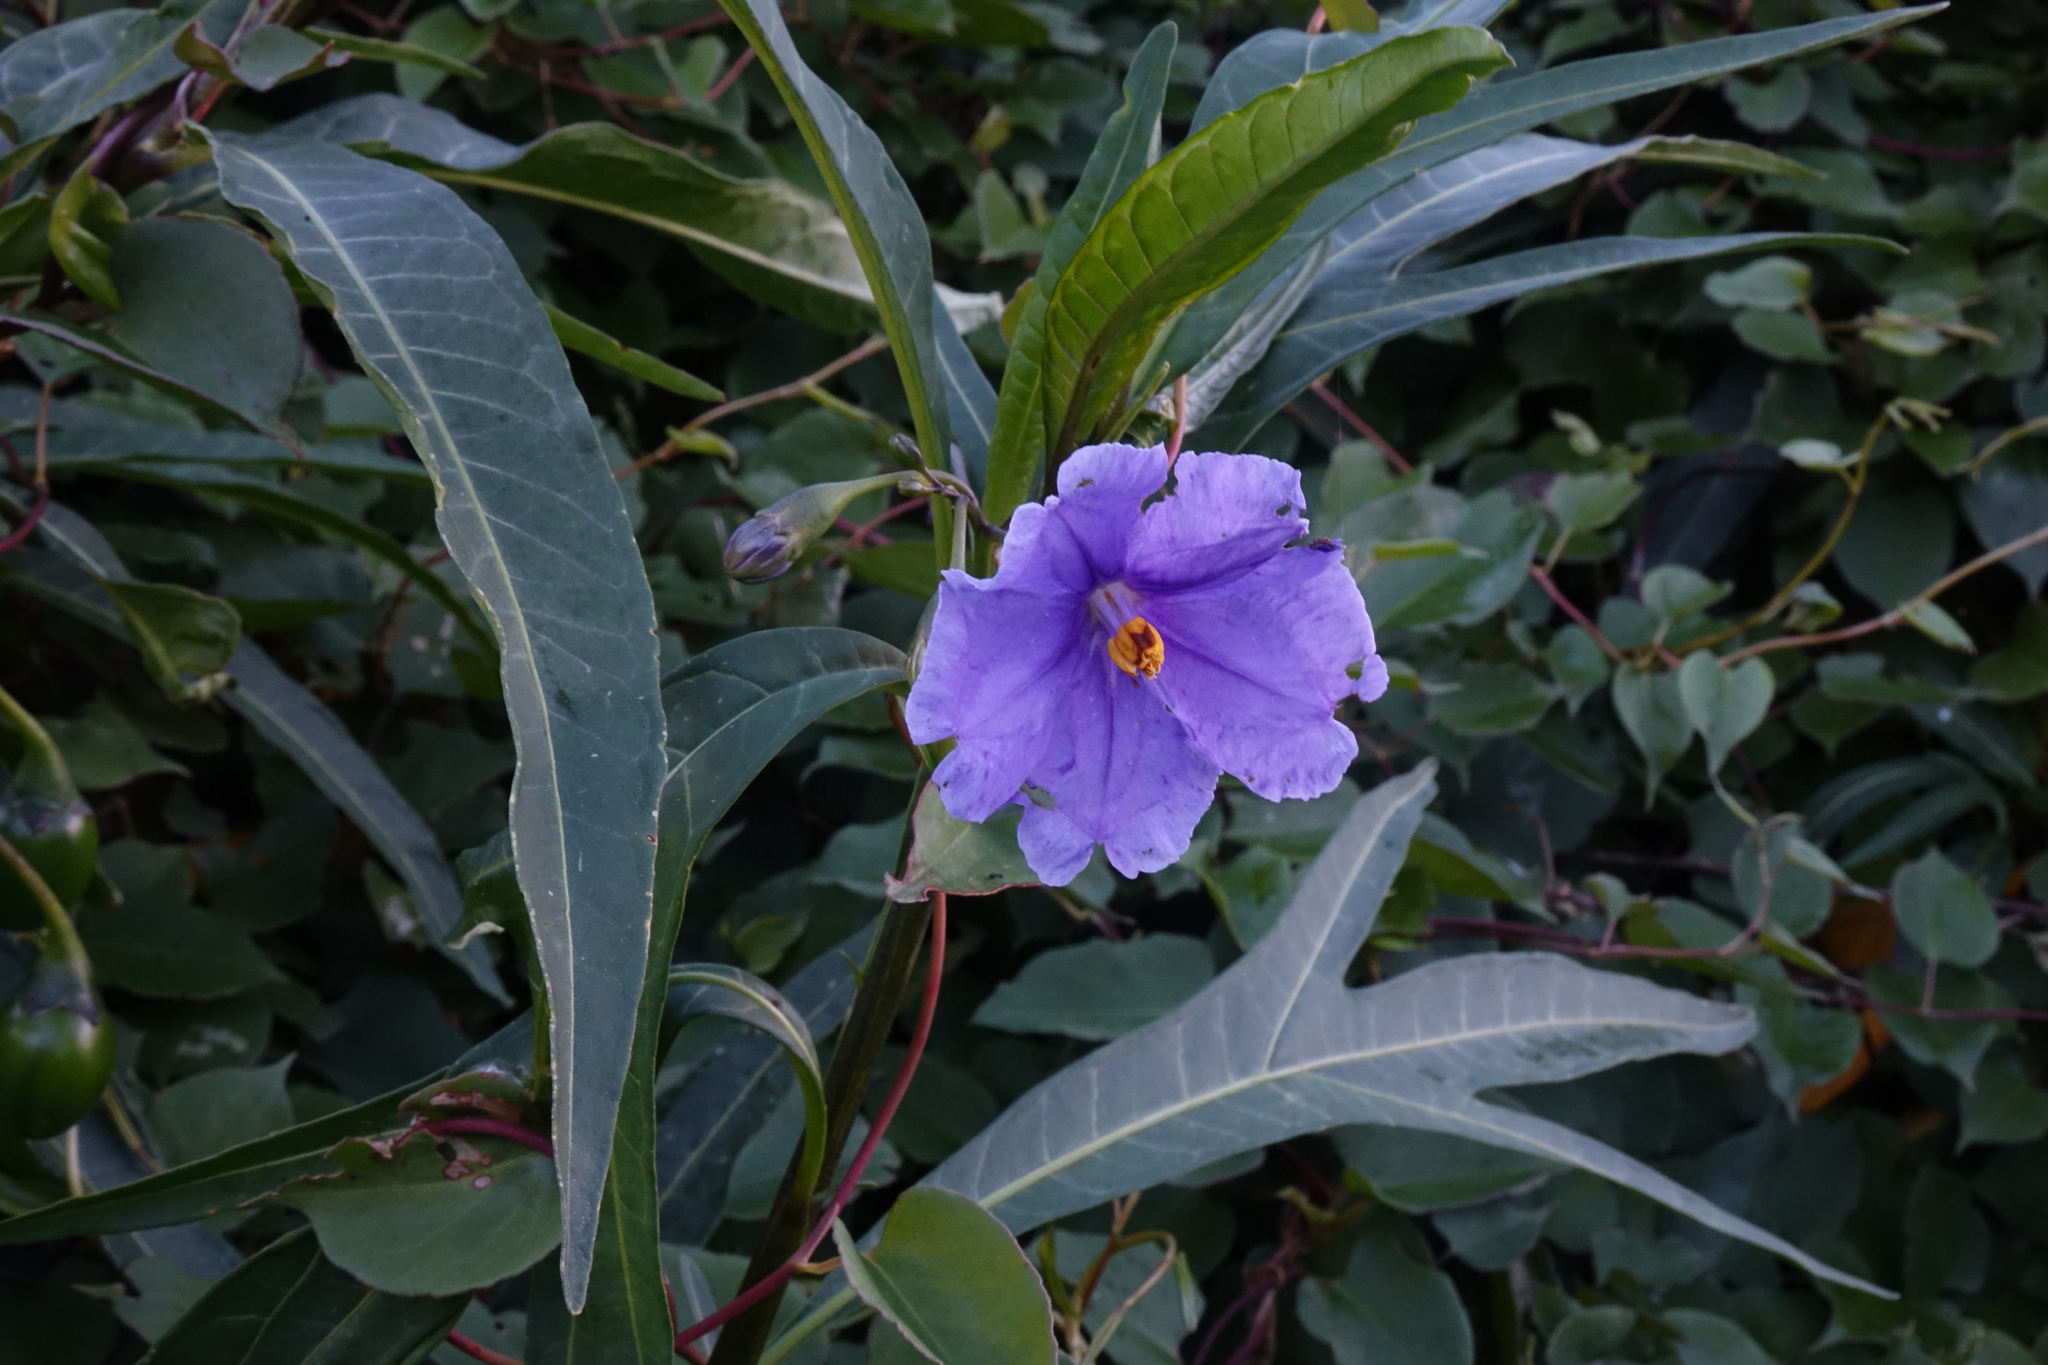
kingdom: Plantae
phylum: Tracheophyta
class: Magnoliopsida
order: Solanales
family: Solanaceae
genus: Solanum
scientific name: Solanum laciniatum
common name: Kangaroo-apple
